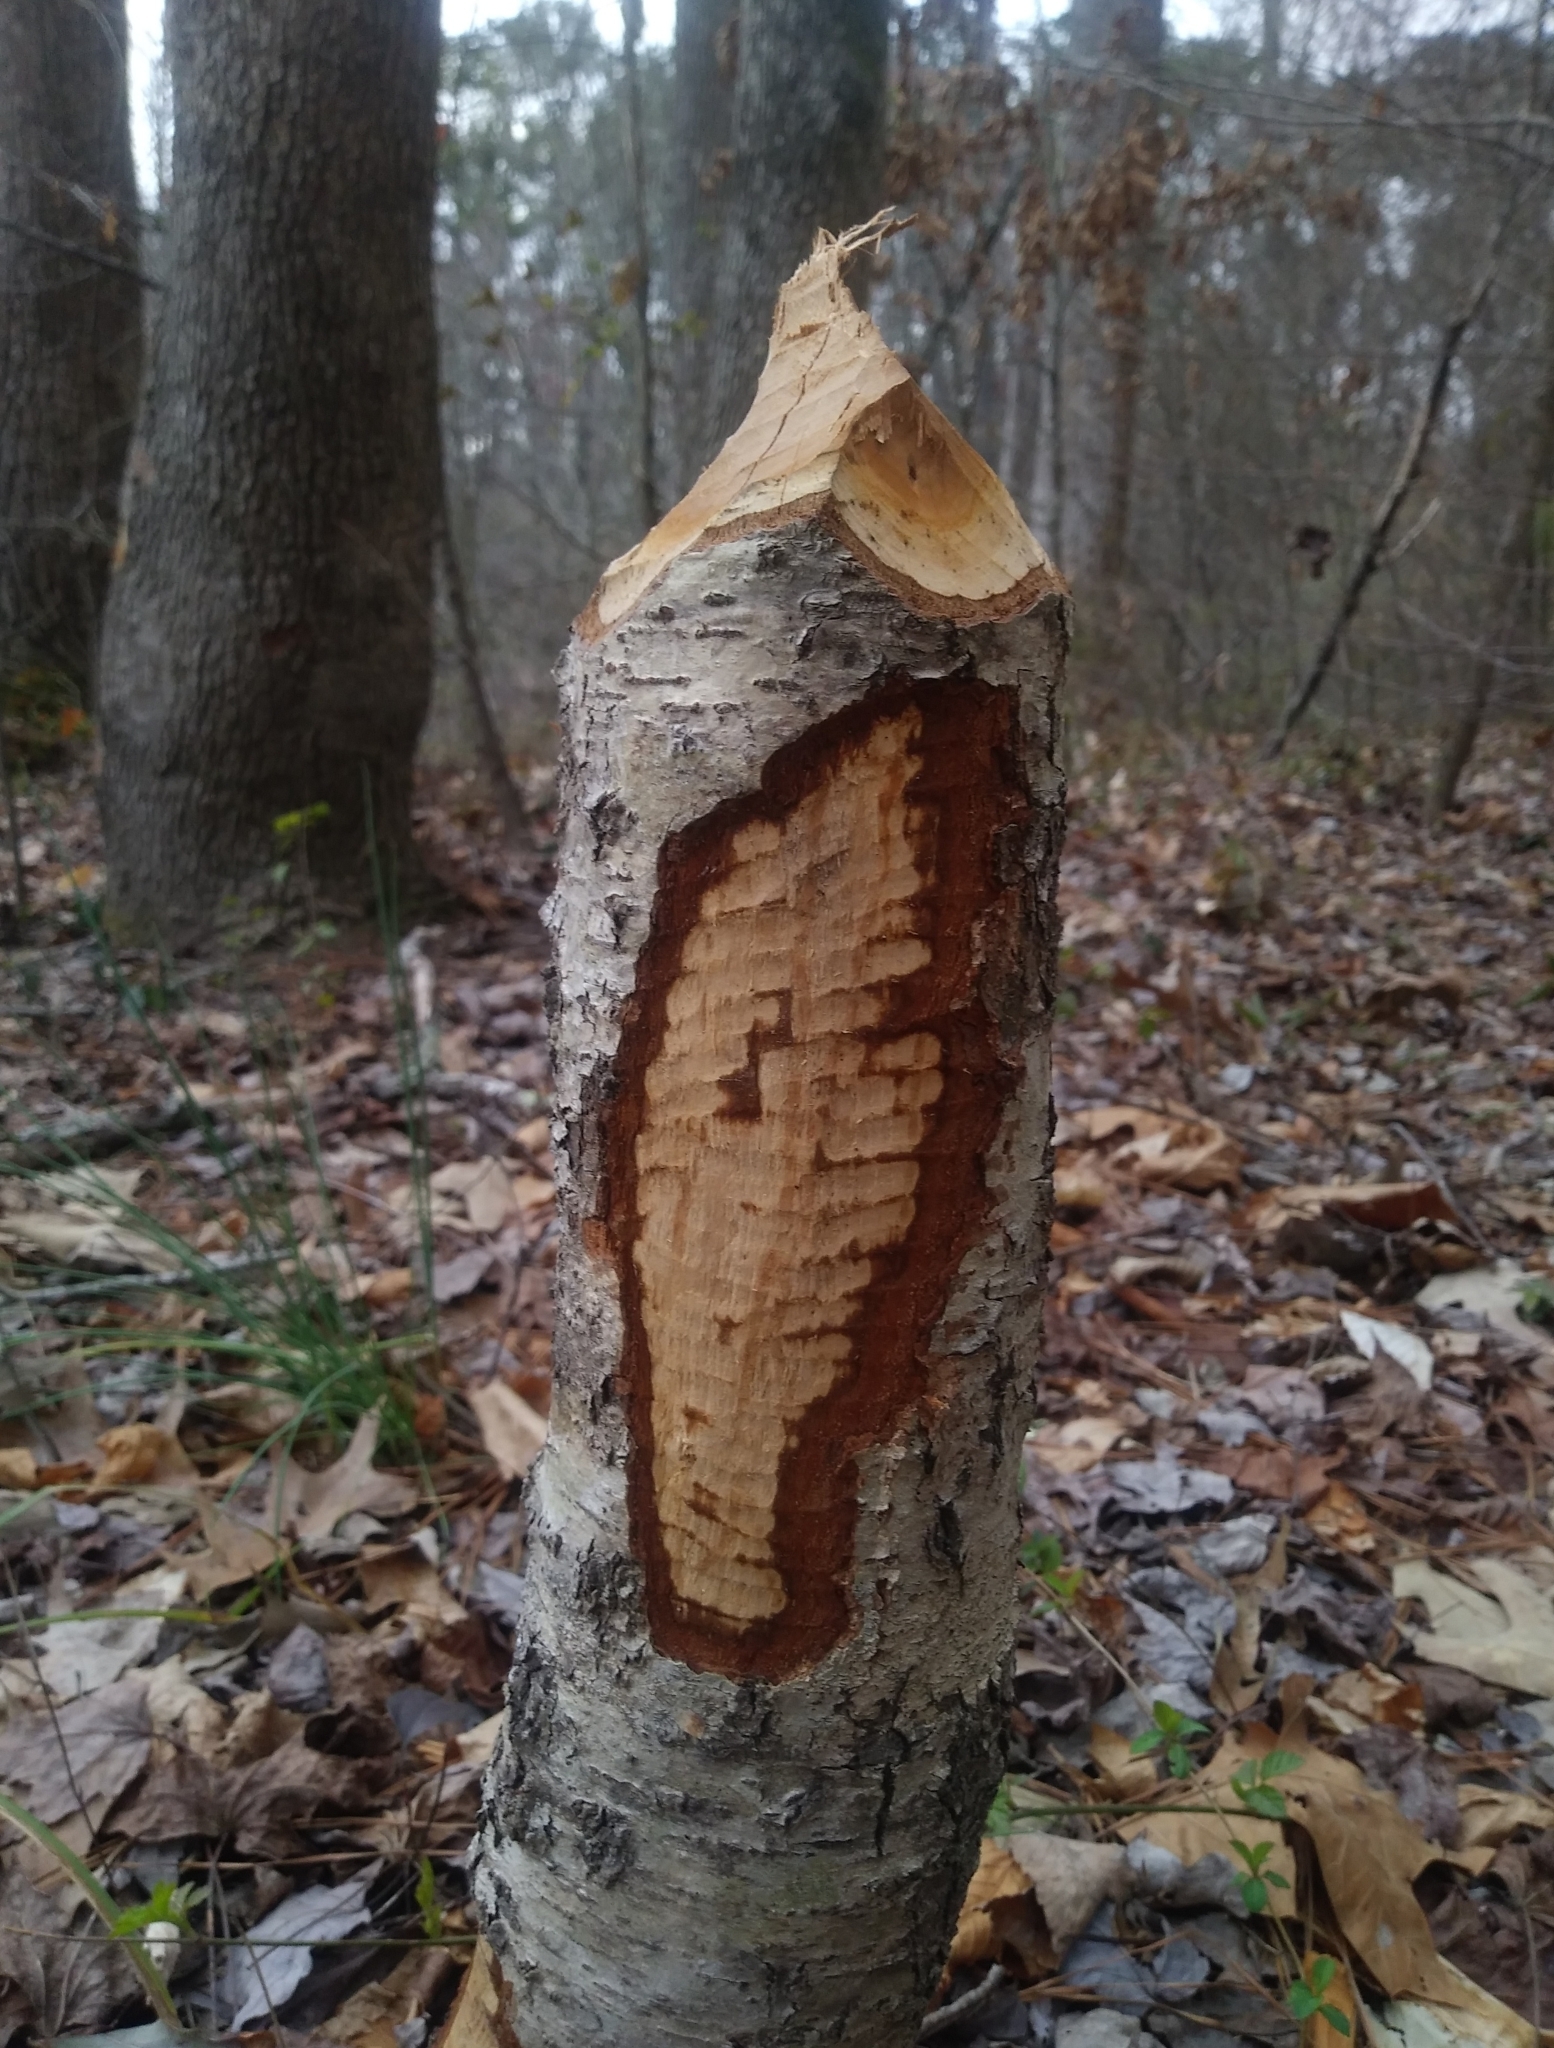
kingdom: Animalia
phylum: Chordata
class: Mammalia
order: Rodentia
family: Castoridae
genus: Castor
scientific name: Castor canadensis
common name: American beaver
